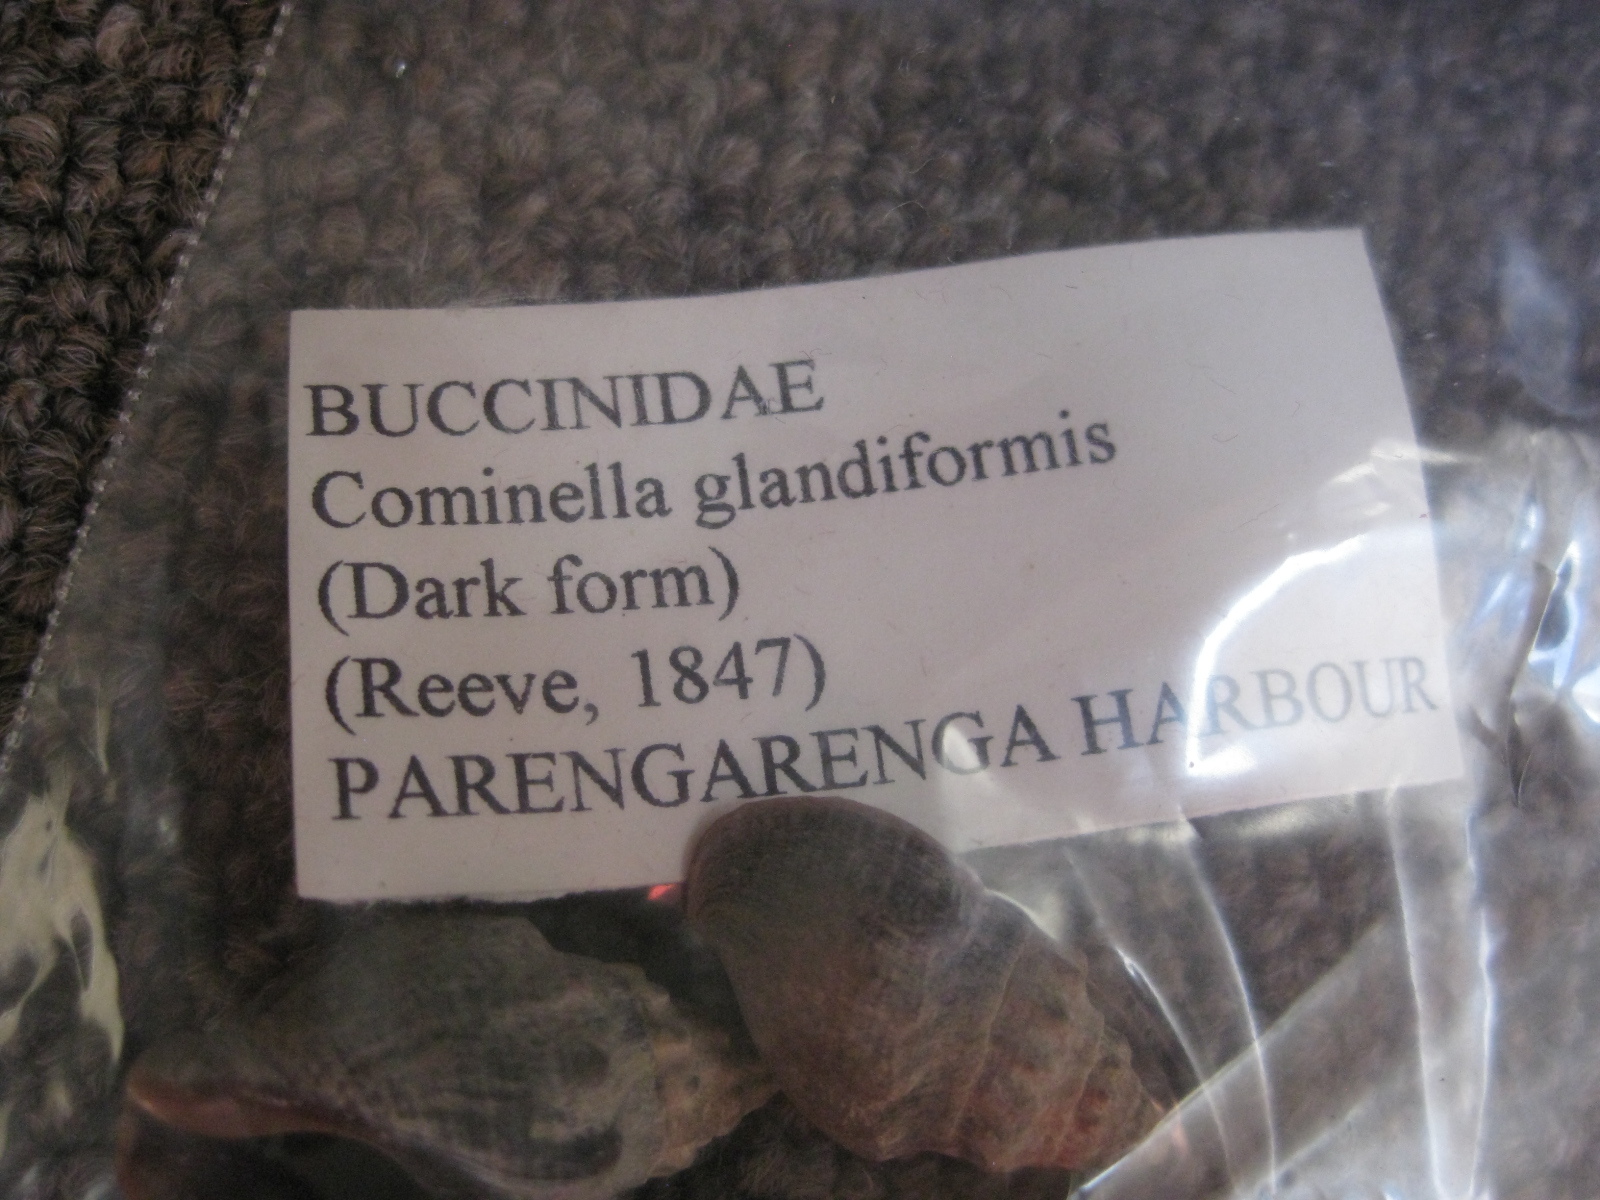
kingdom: Animalia
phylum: Mollusca
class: Gastropoda
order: Neogastropoda
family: Cominellidae
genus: Cominella
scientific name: Cominella glandiformis
